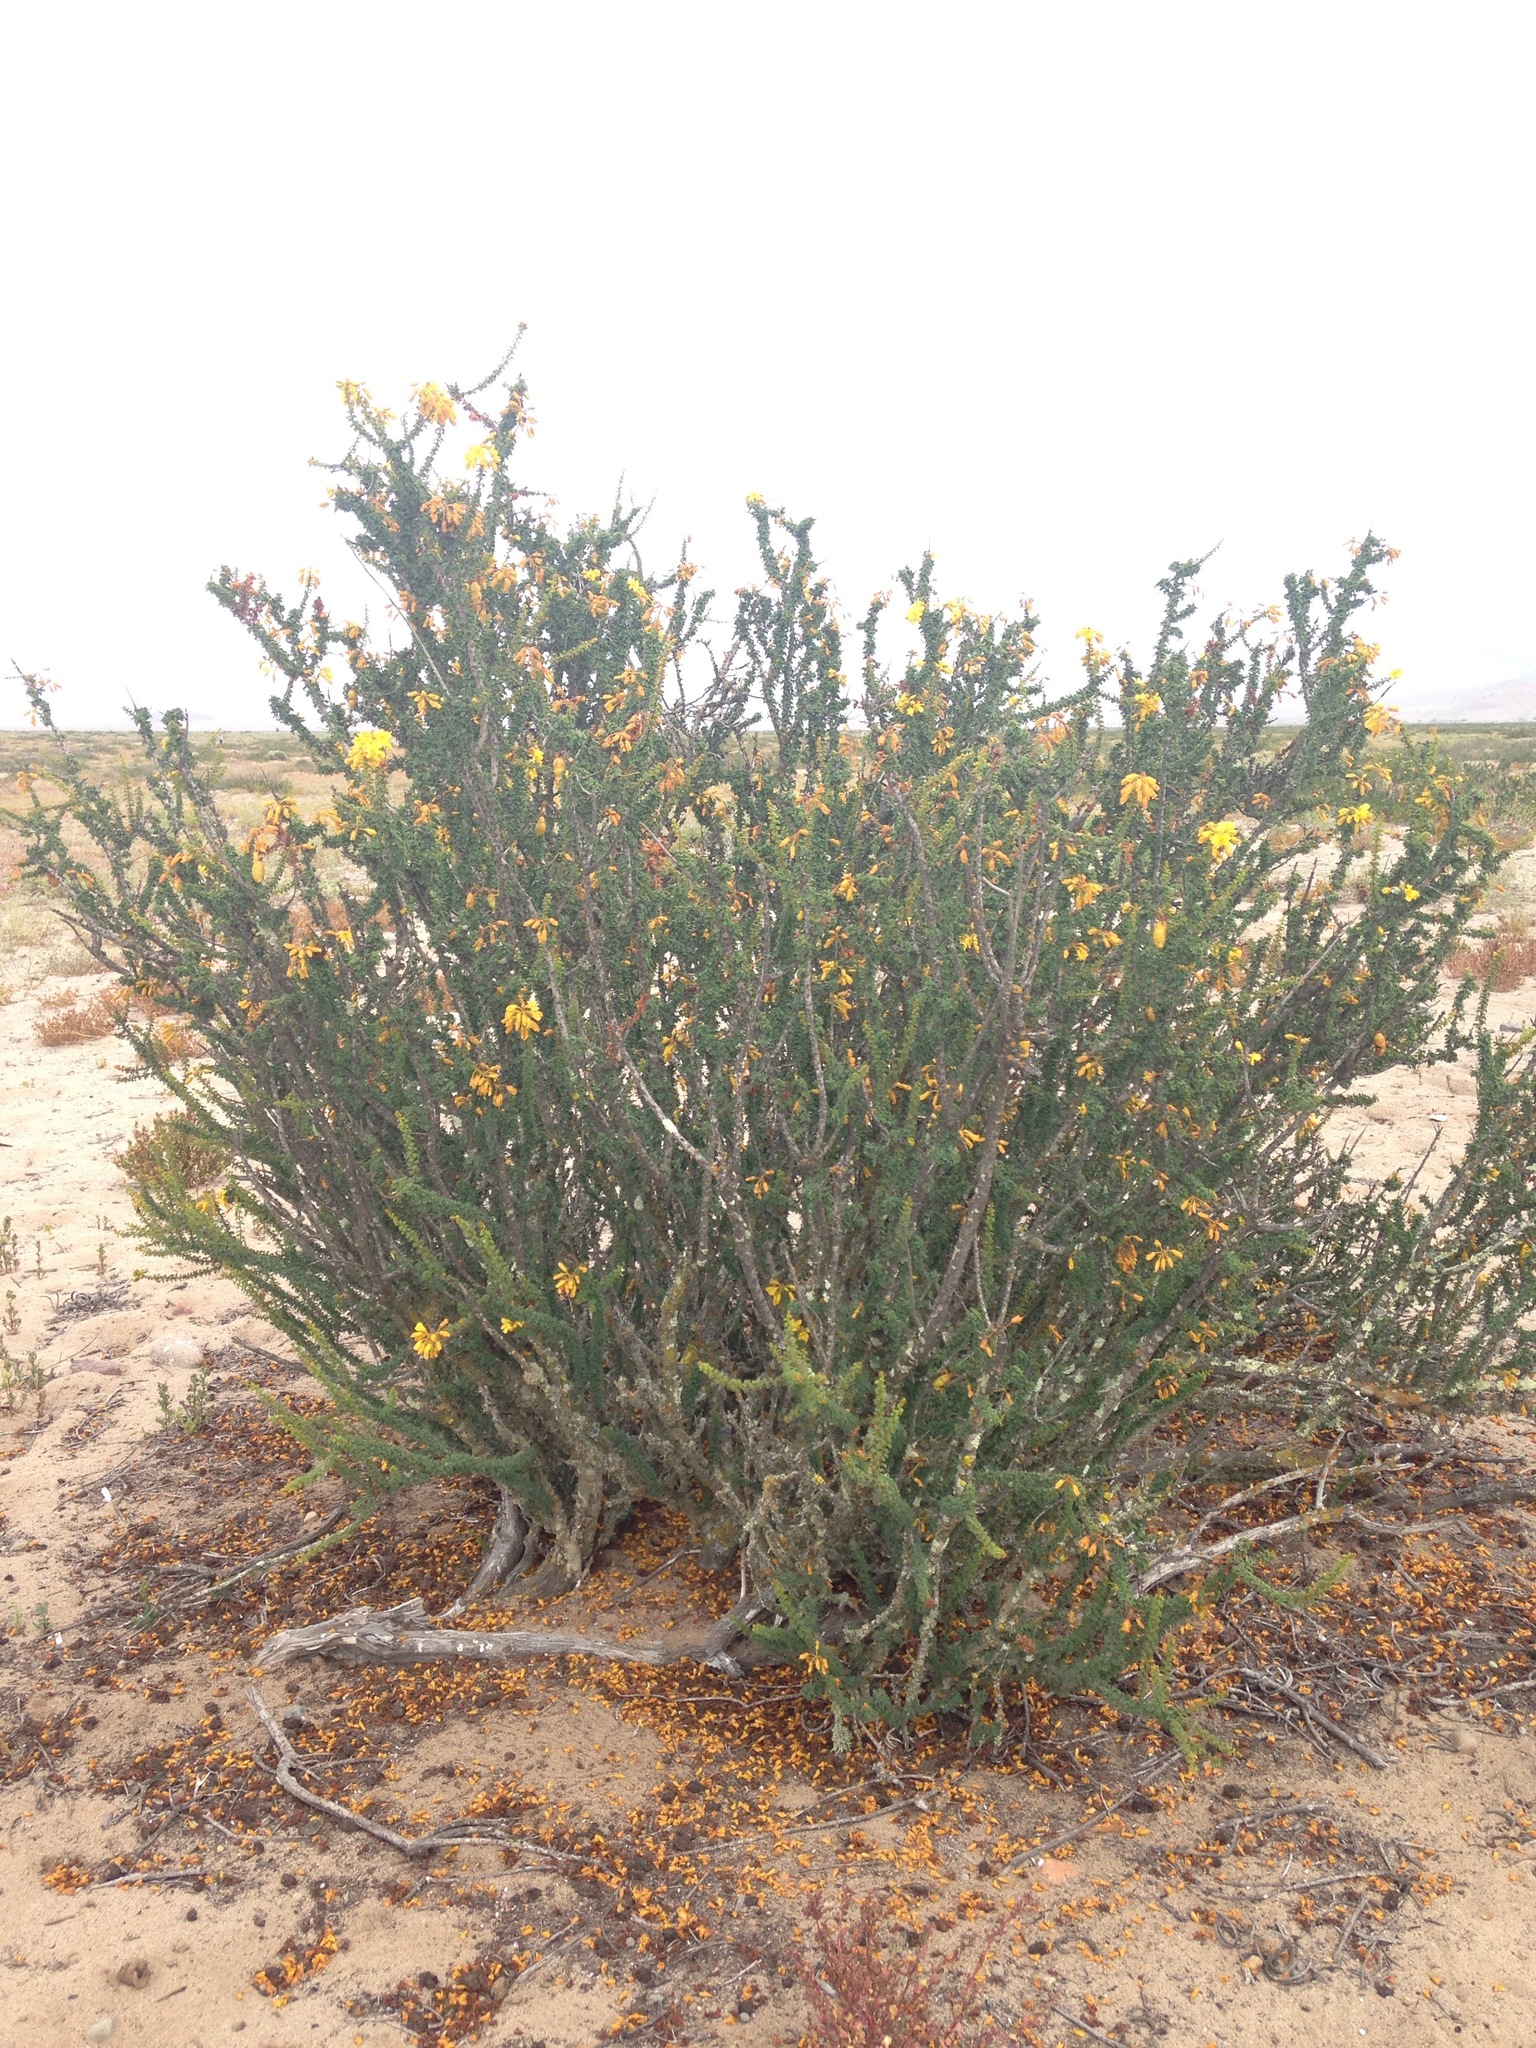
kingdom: Plantae
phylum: Tracheophyta
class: Magnoliopsida
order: Fabales
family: Fabaceae
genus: Balsamocarpon
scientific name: Balsamocarpon brevifolium
